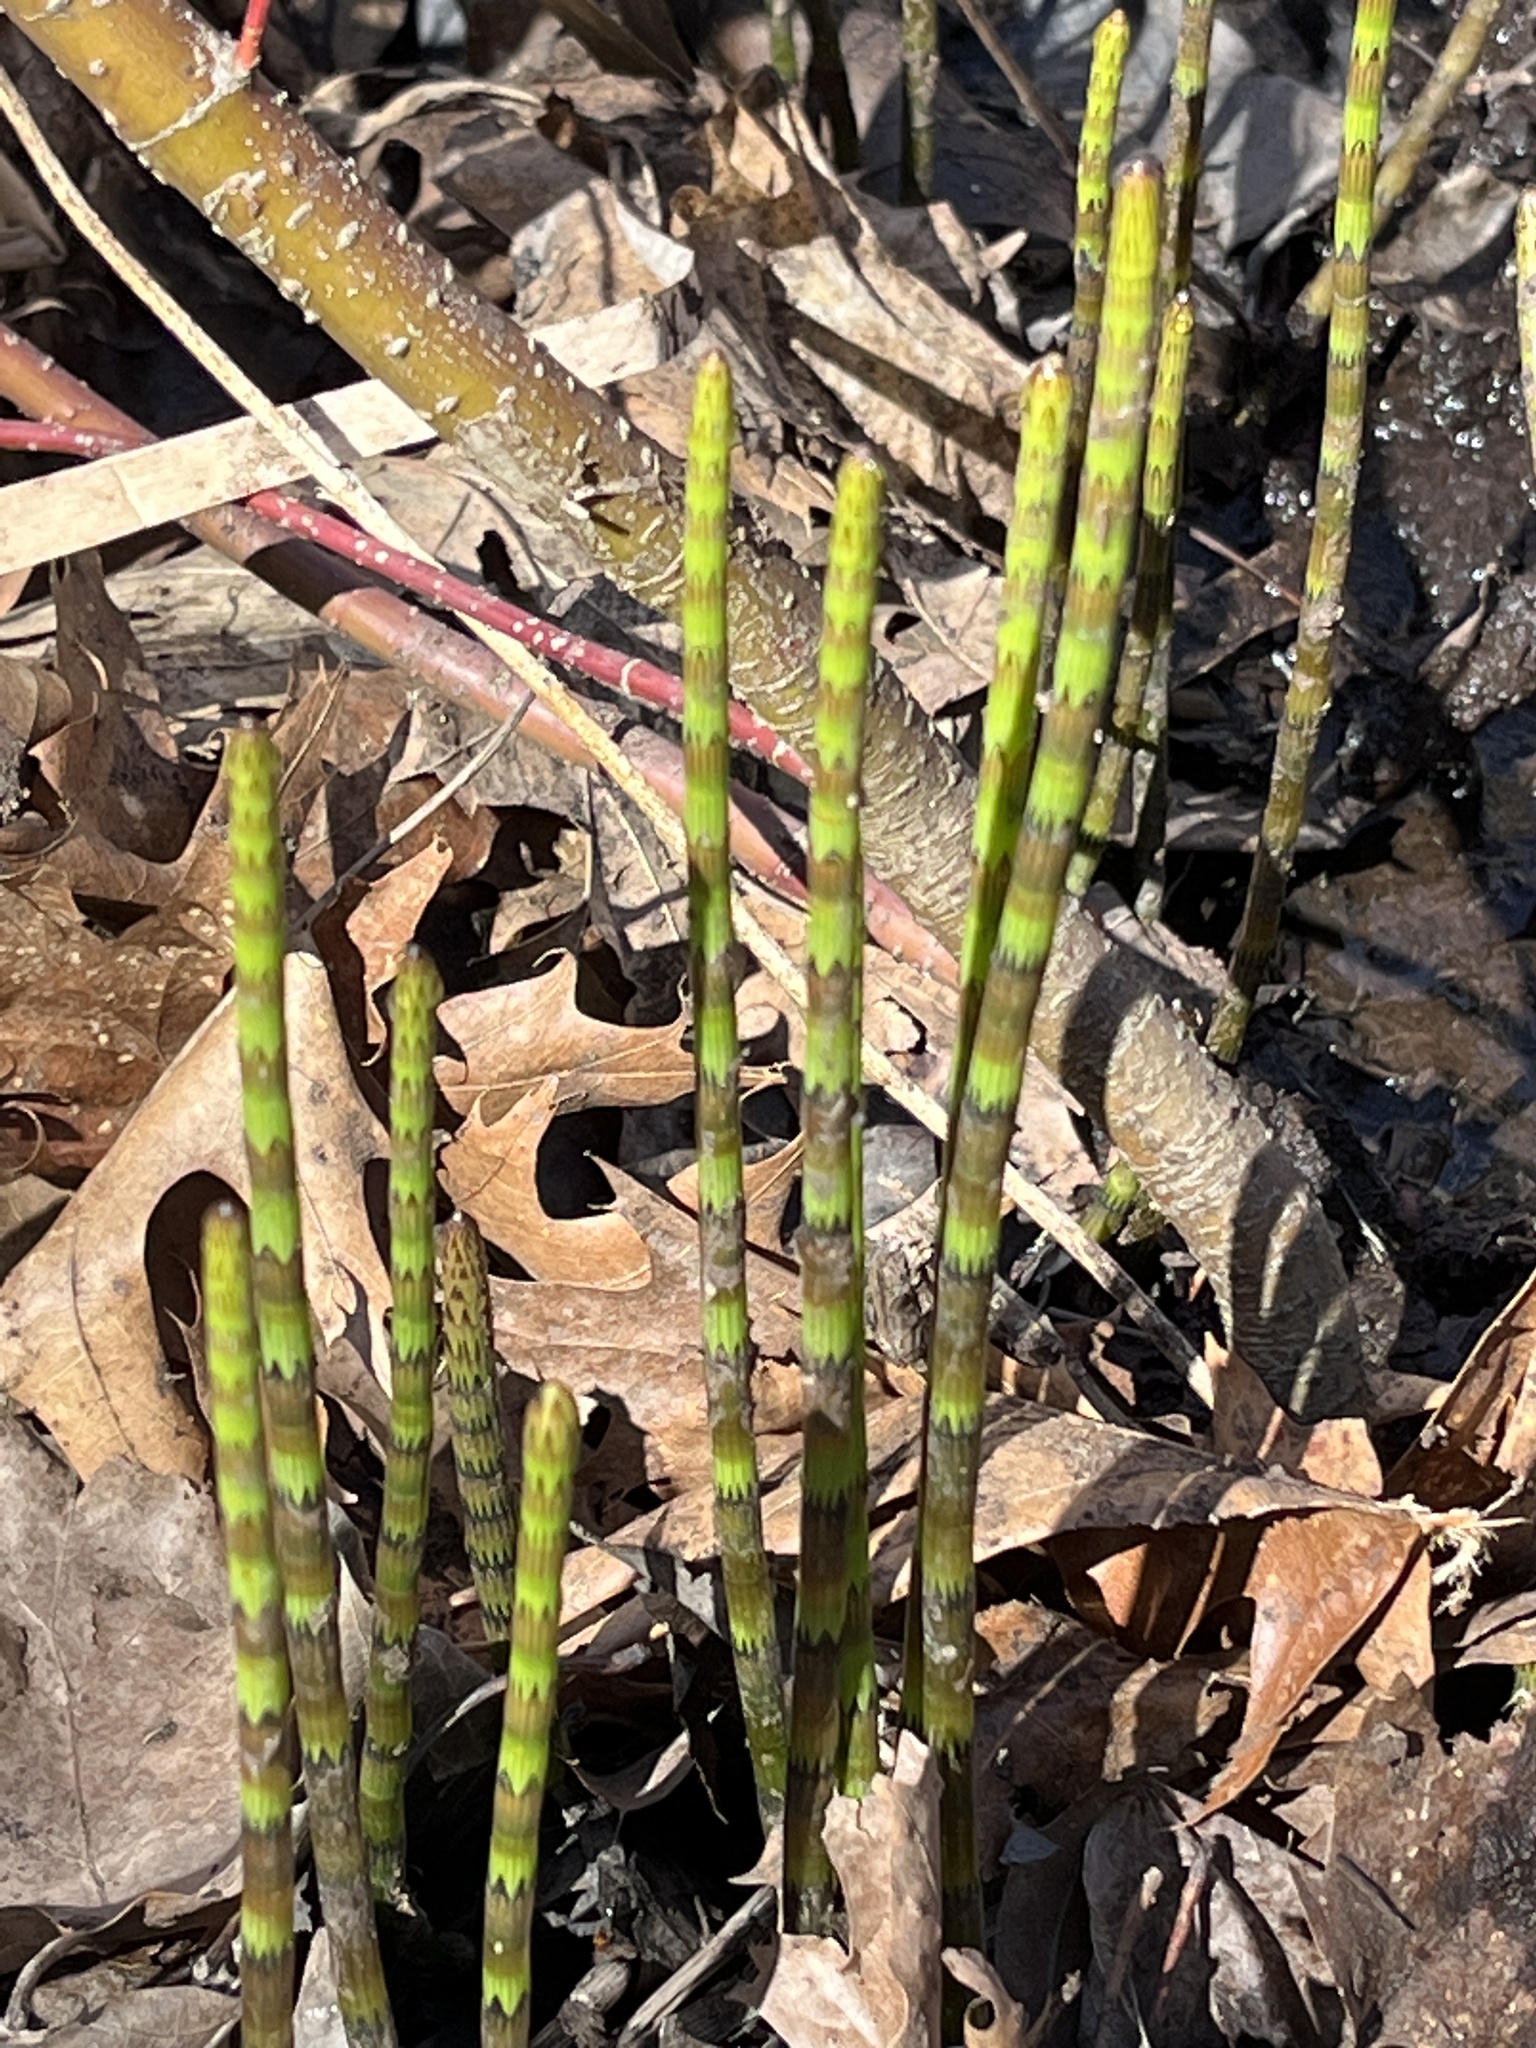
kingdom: Plantae
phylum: Tracheophyta
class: Polypodiopsida
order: Equisetales
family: Equisetaceae
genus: Equisetum
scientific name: Equisetum fluviatile
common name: Water horsetail
